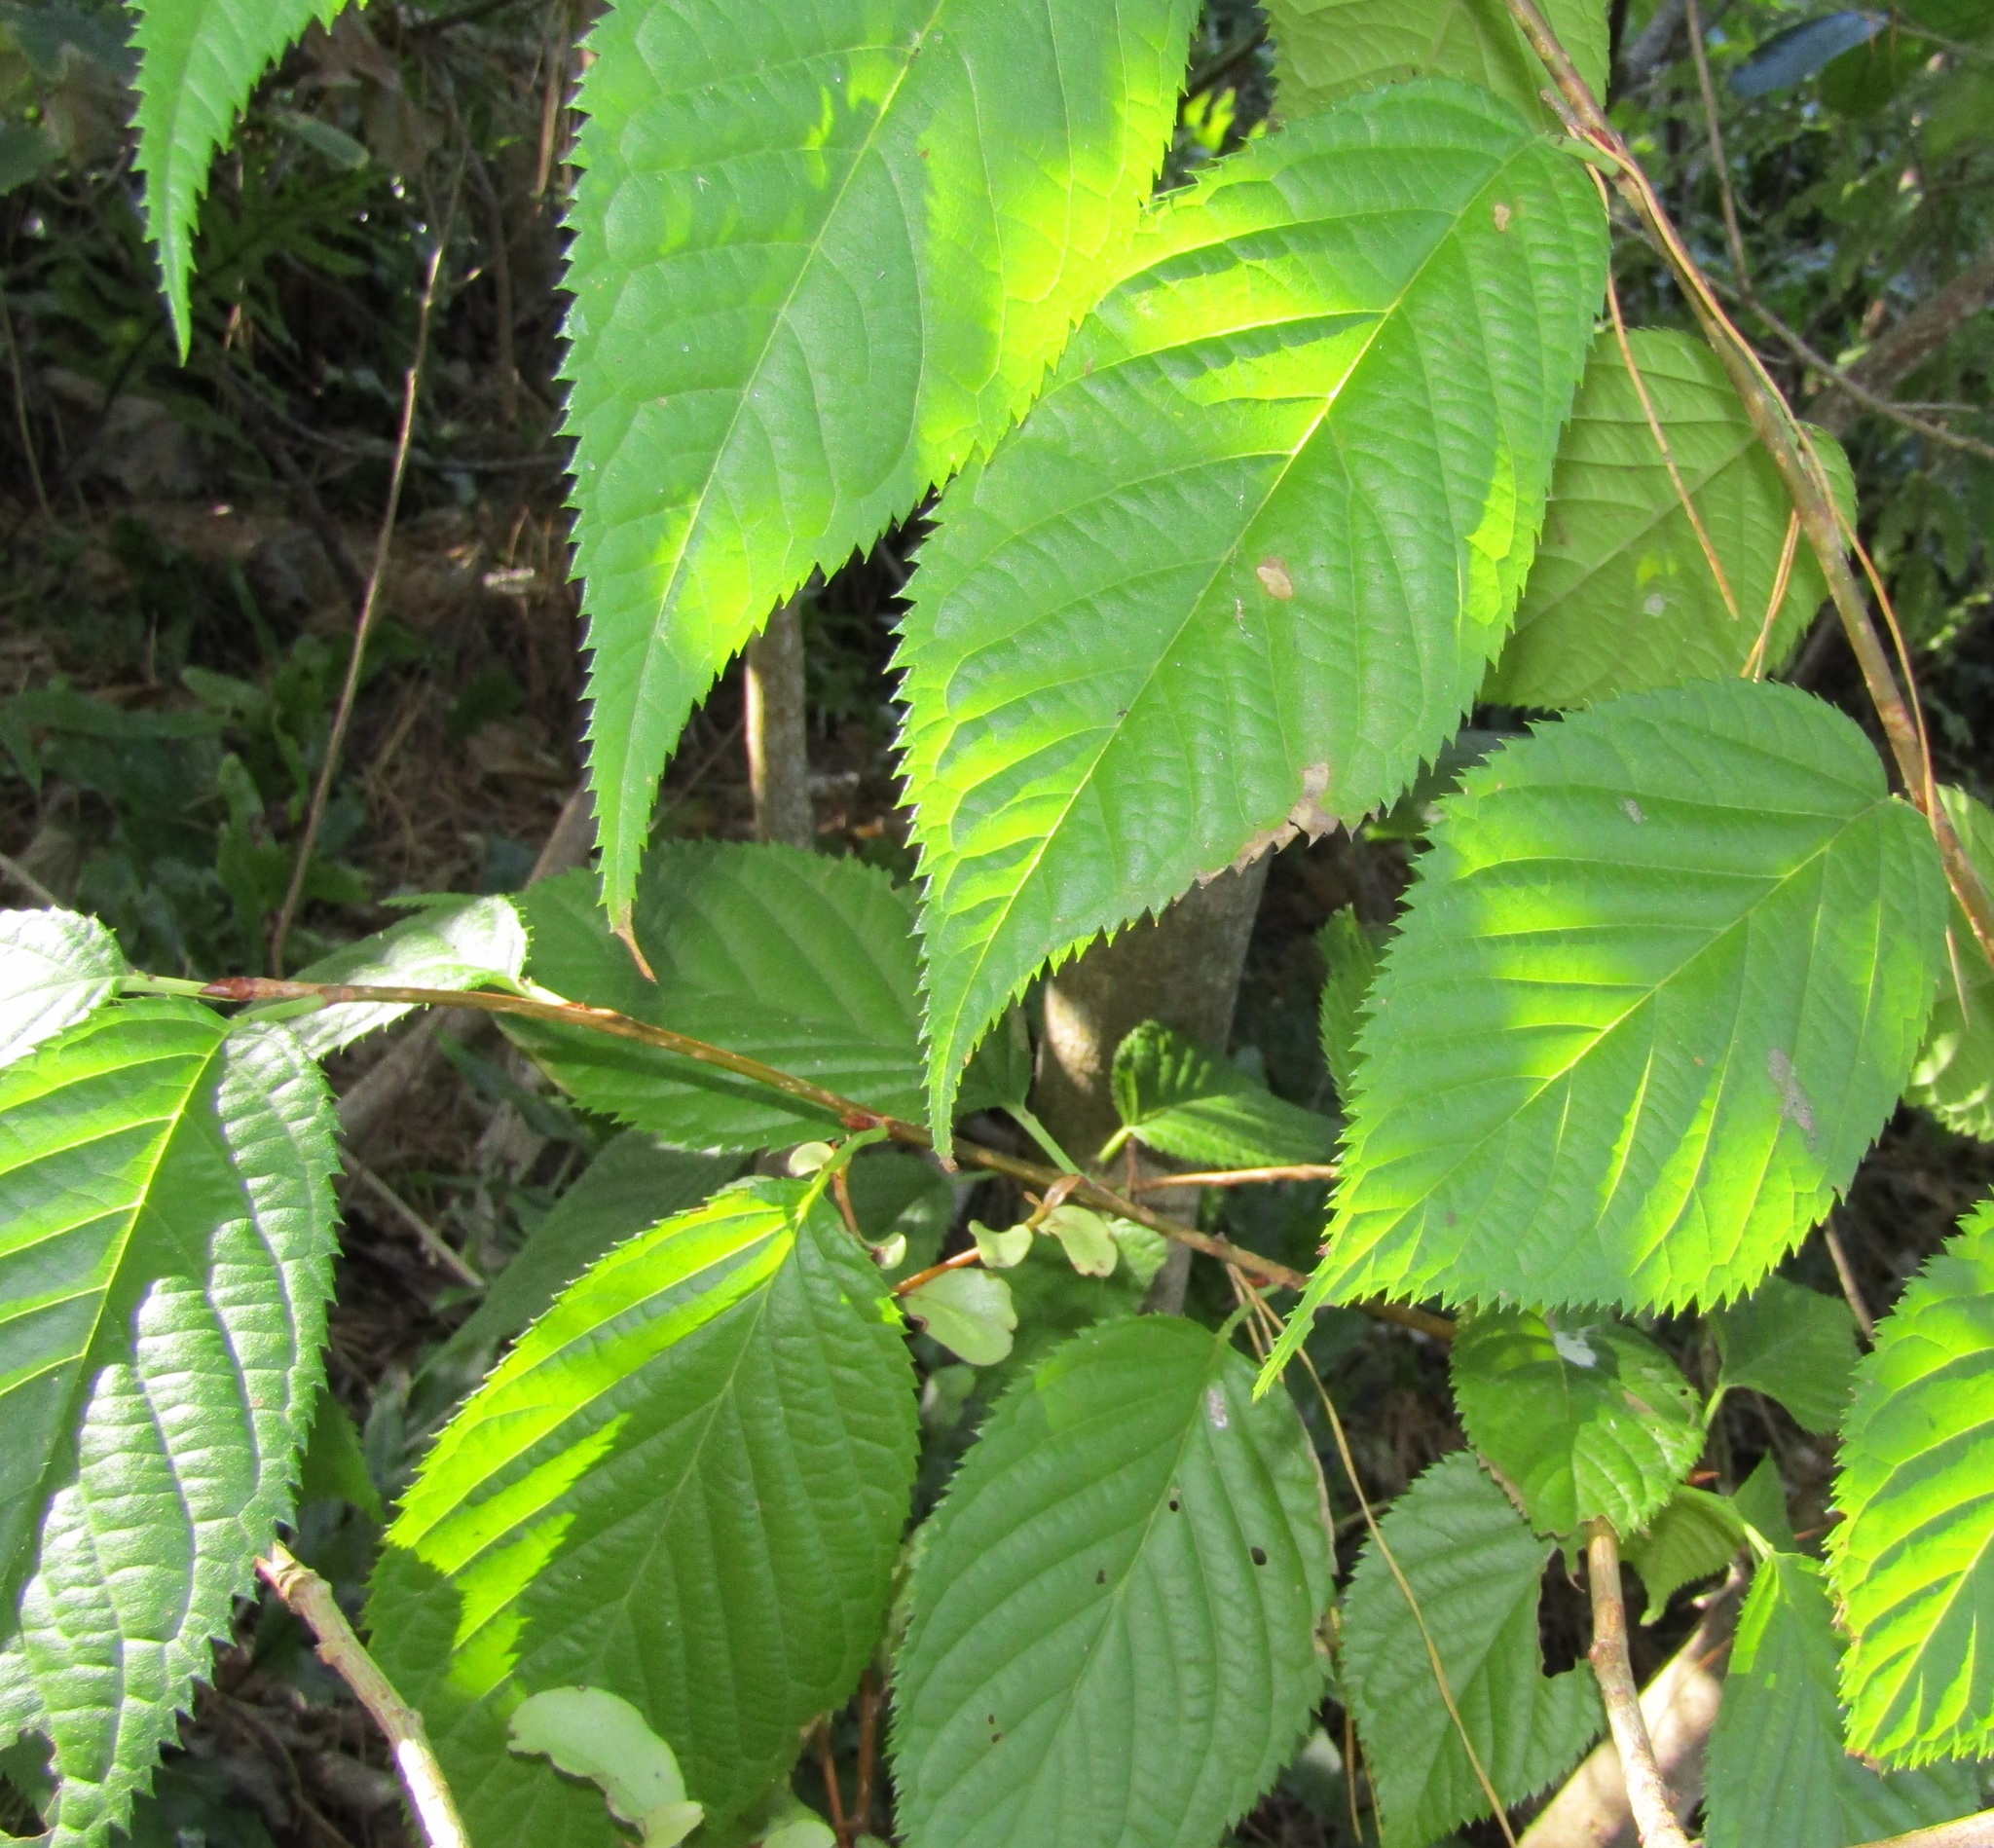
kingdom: Plantae
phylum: Tracheophyta
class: Magnoliopsida
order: Rosales
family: Rosaceae
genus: Prunus
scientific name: Prunus serrulata
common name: Japanese cherry
